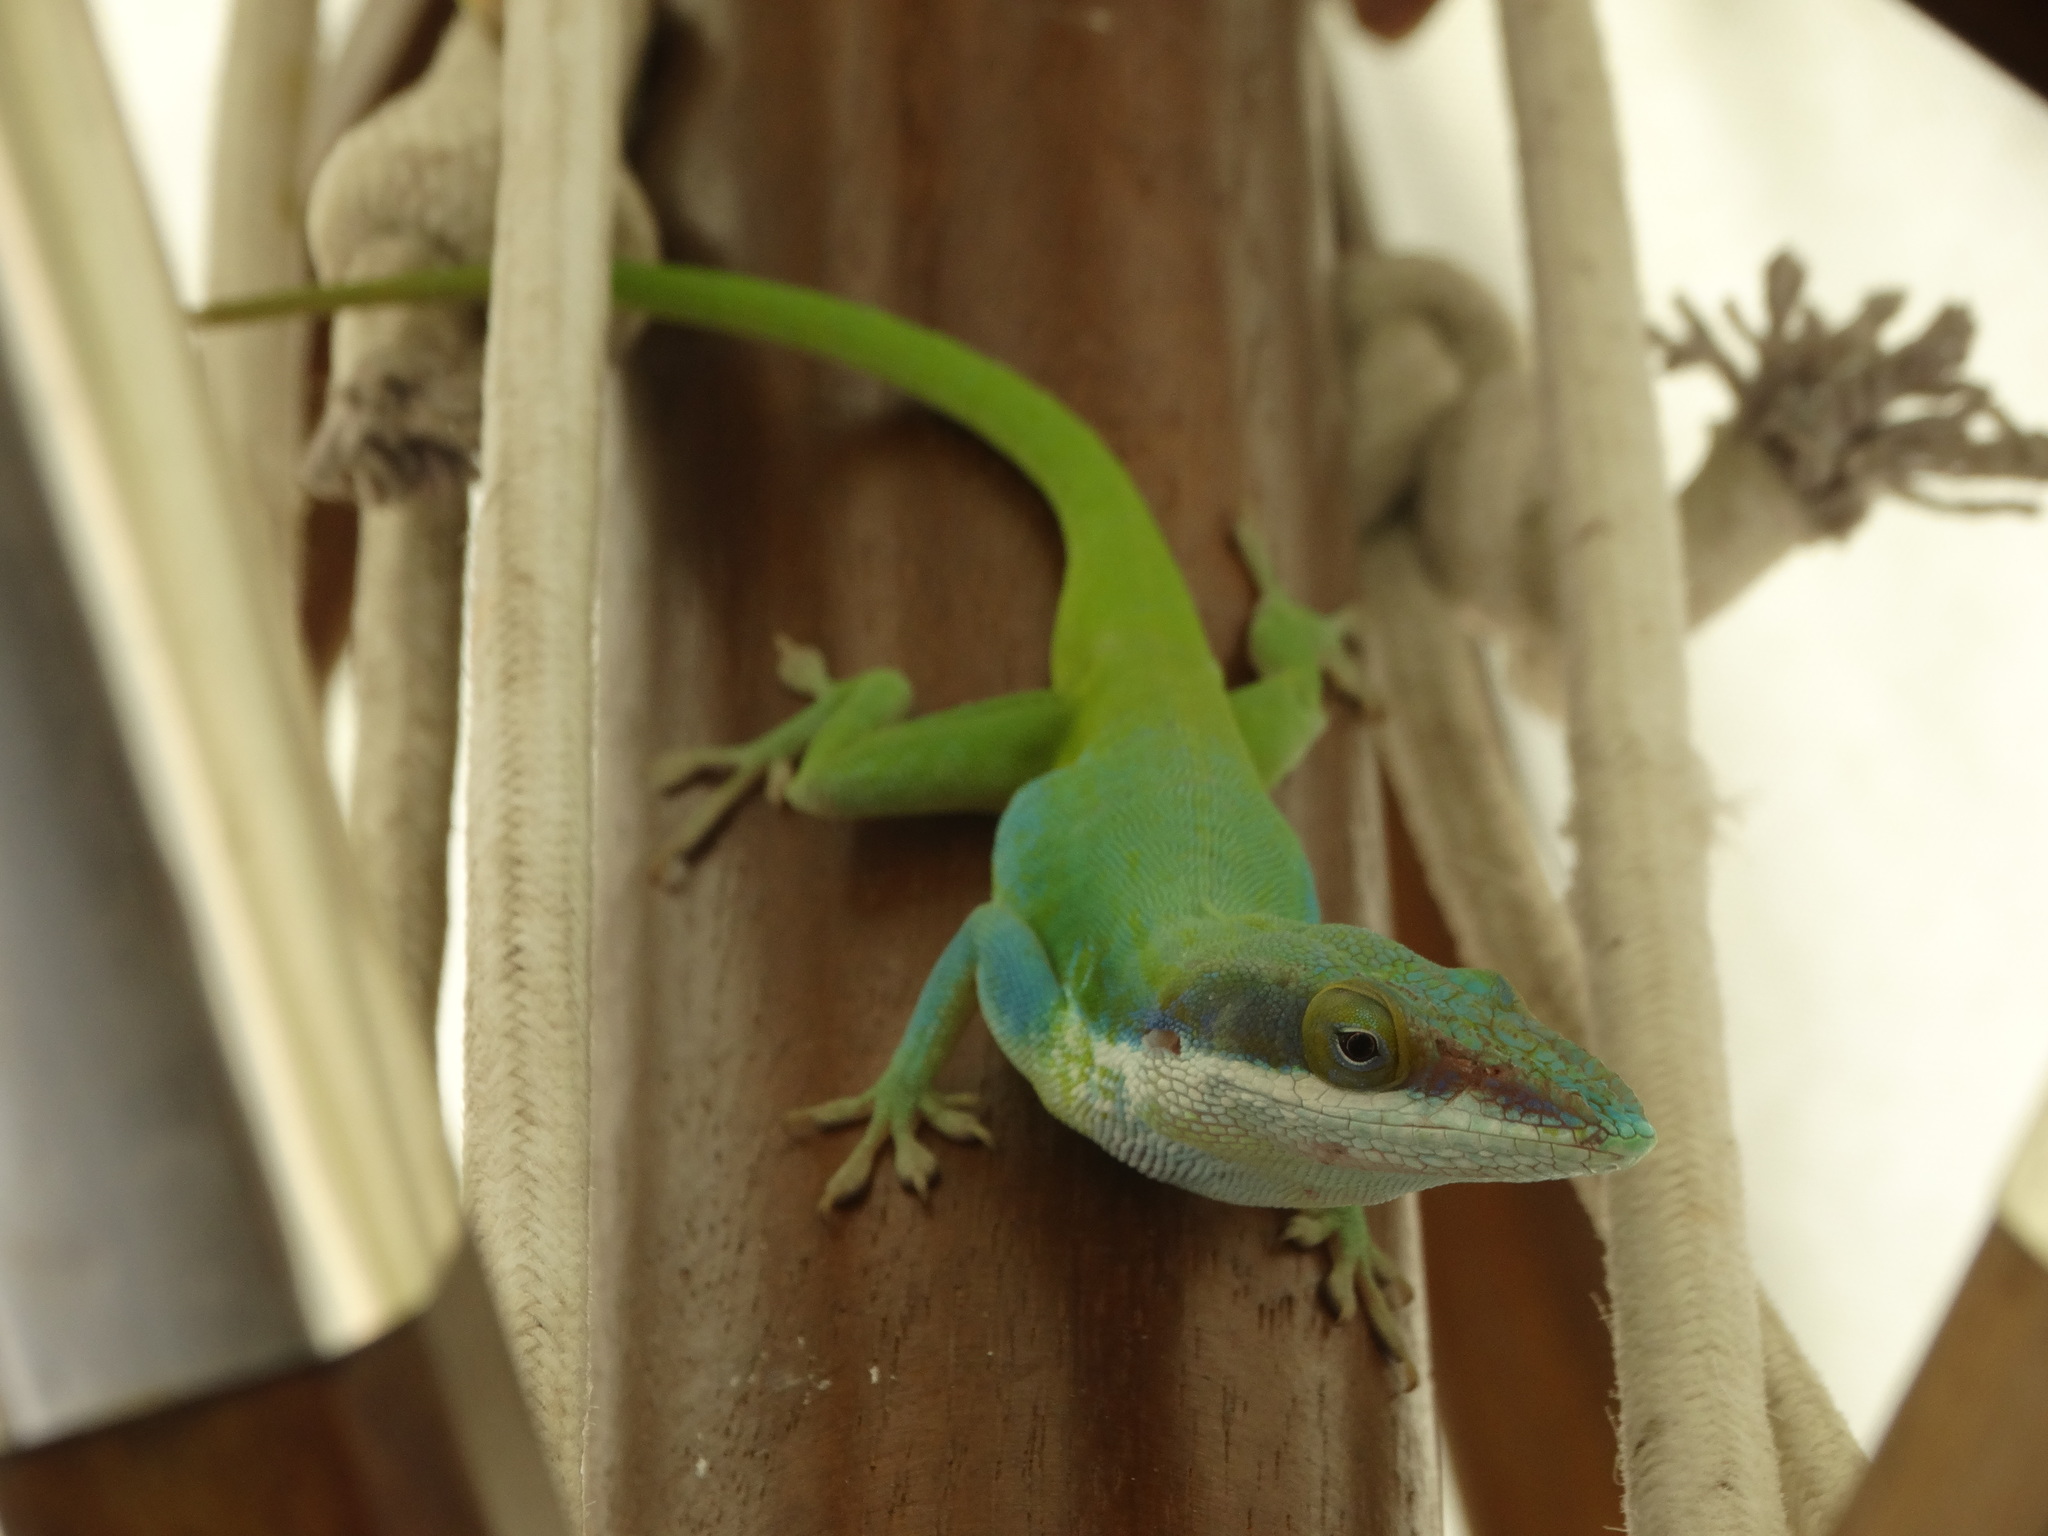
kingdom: Animalia
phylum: Chordata
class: Squamata
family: Dactyloidae
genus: Anolis
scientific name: Anolis allisoni
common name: Allison's anole
